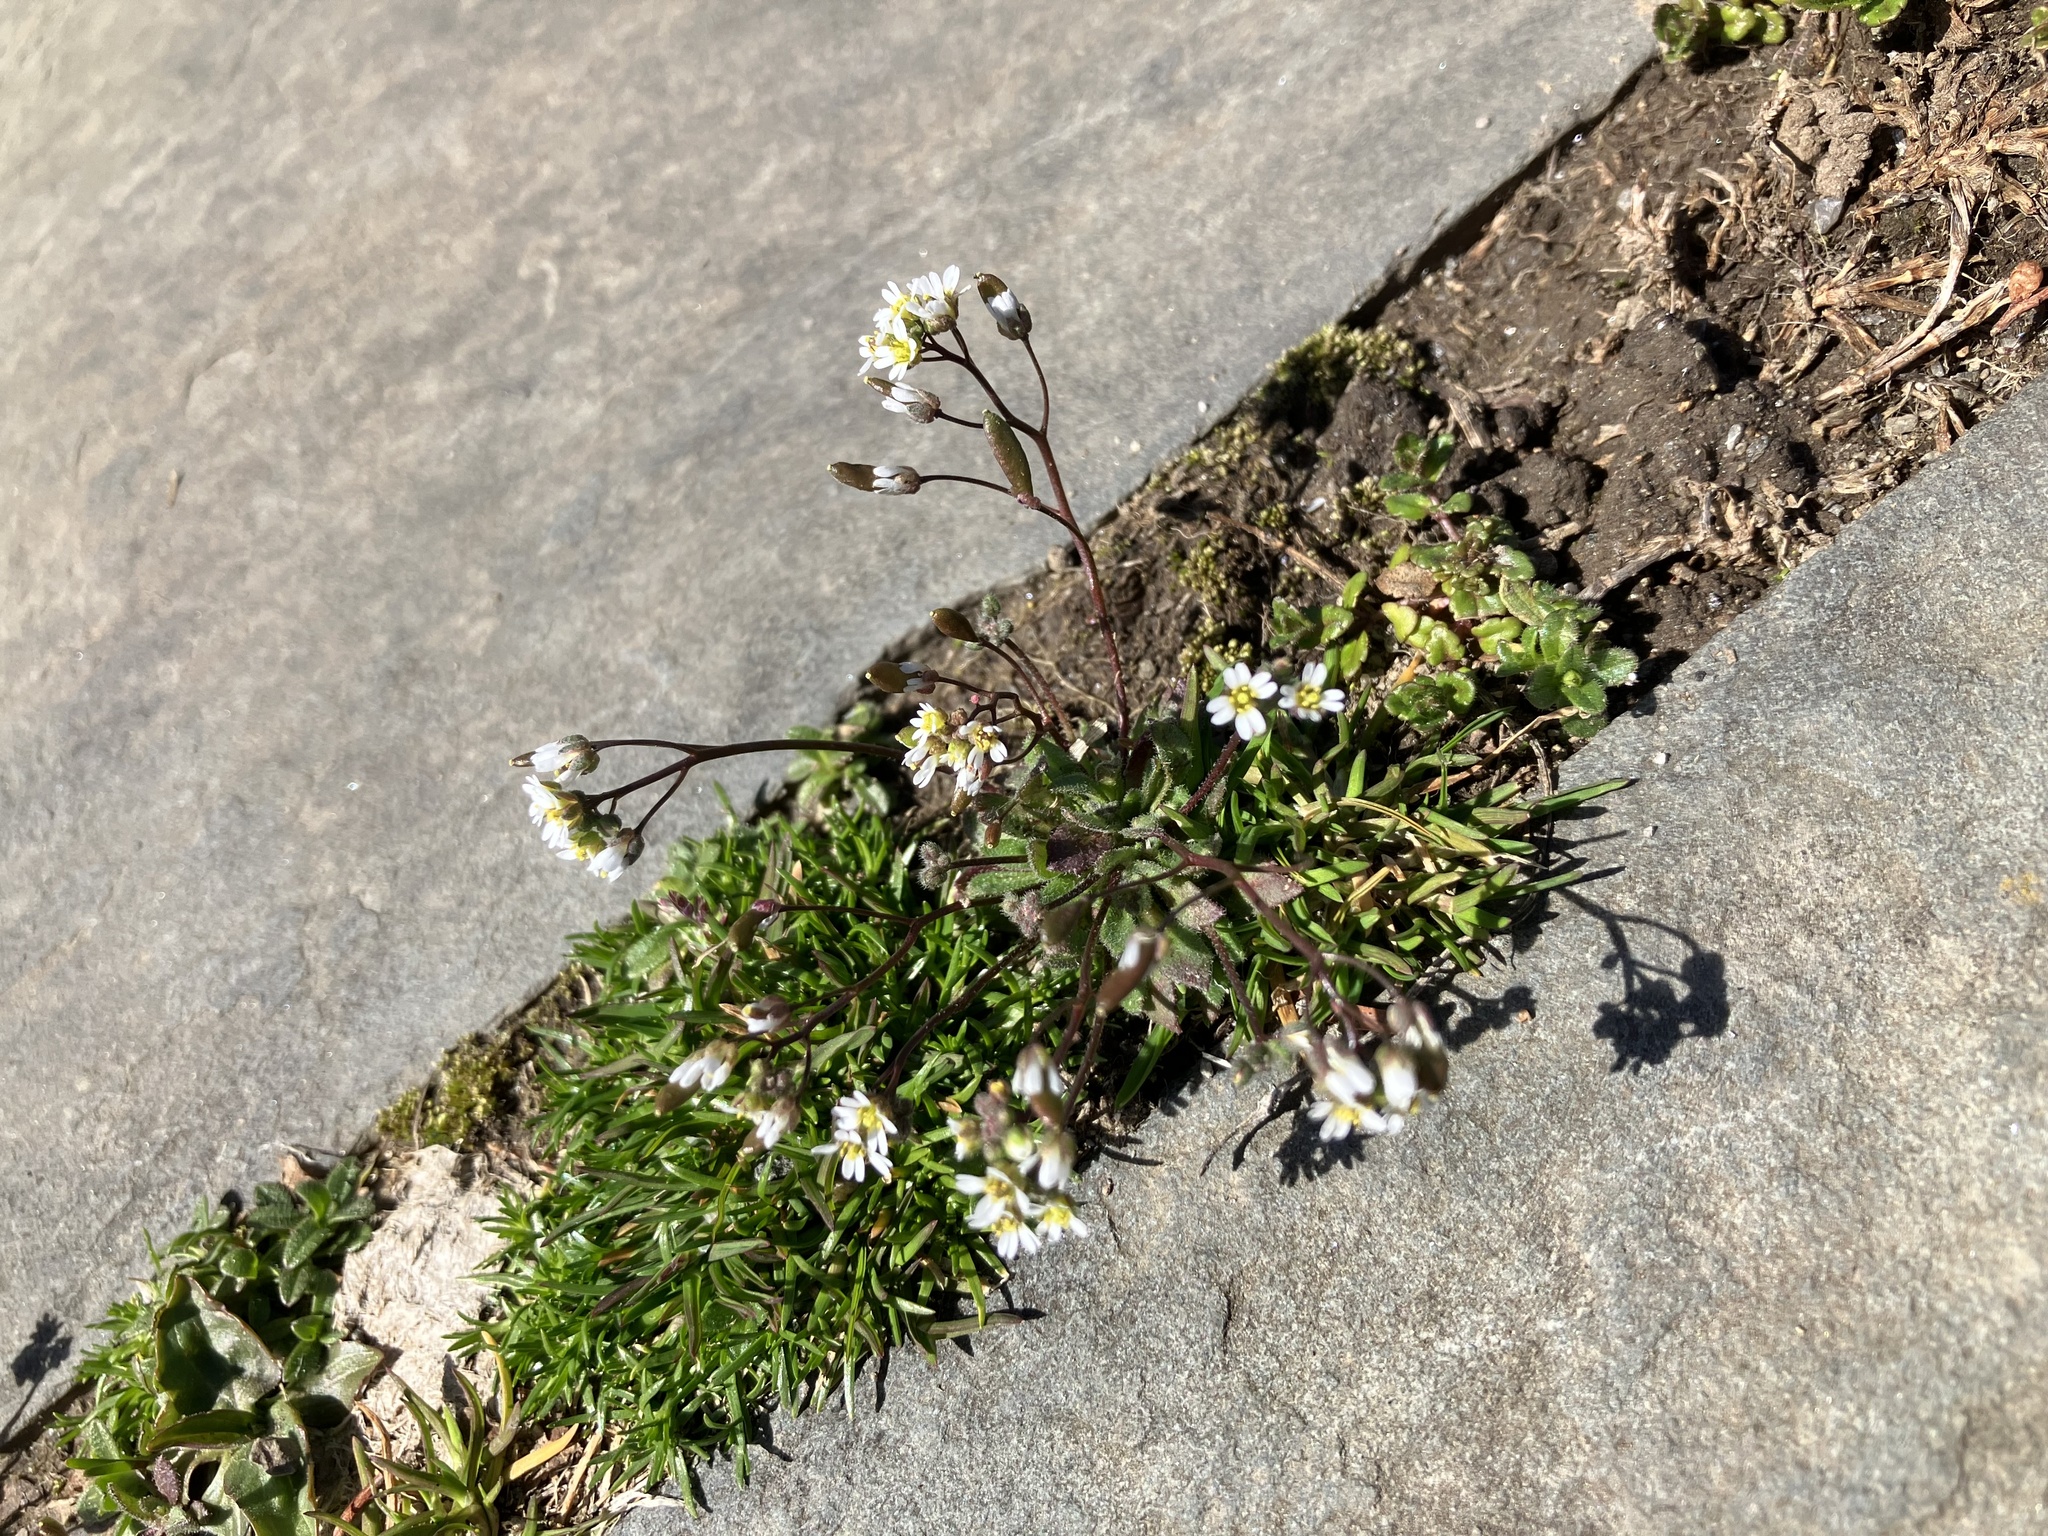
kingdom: Plantae
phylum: Tracheophyta
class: Magnoliopsida
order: Brassicales
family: Brassicaceae
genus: Draba
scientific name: Draba verna
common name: Spring draba
